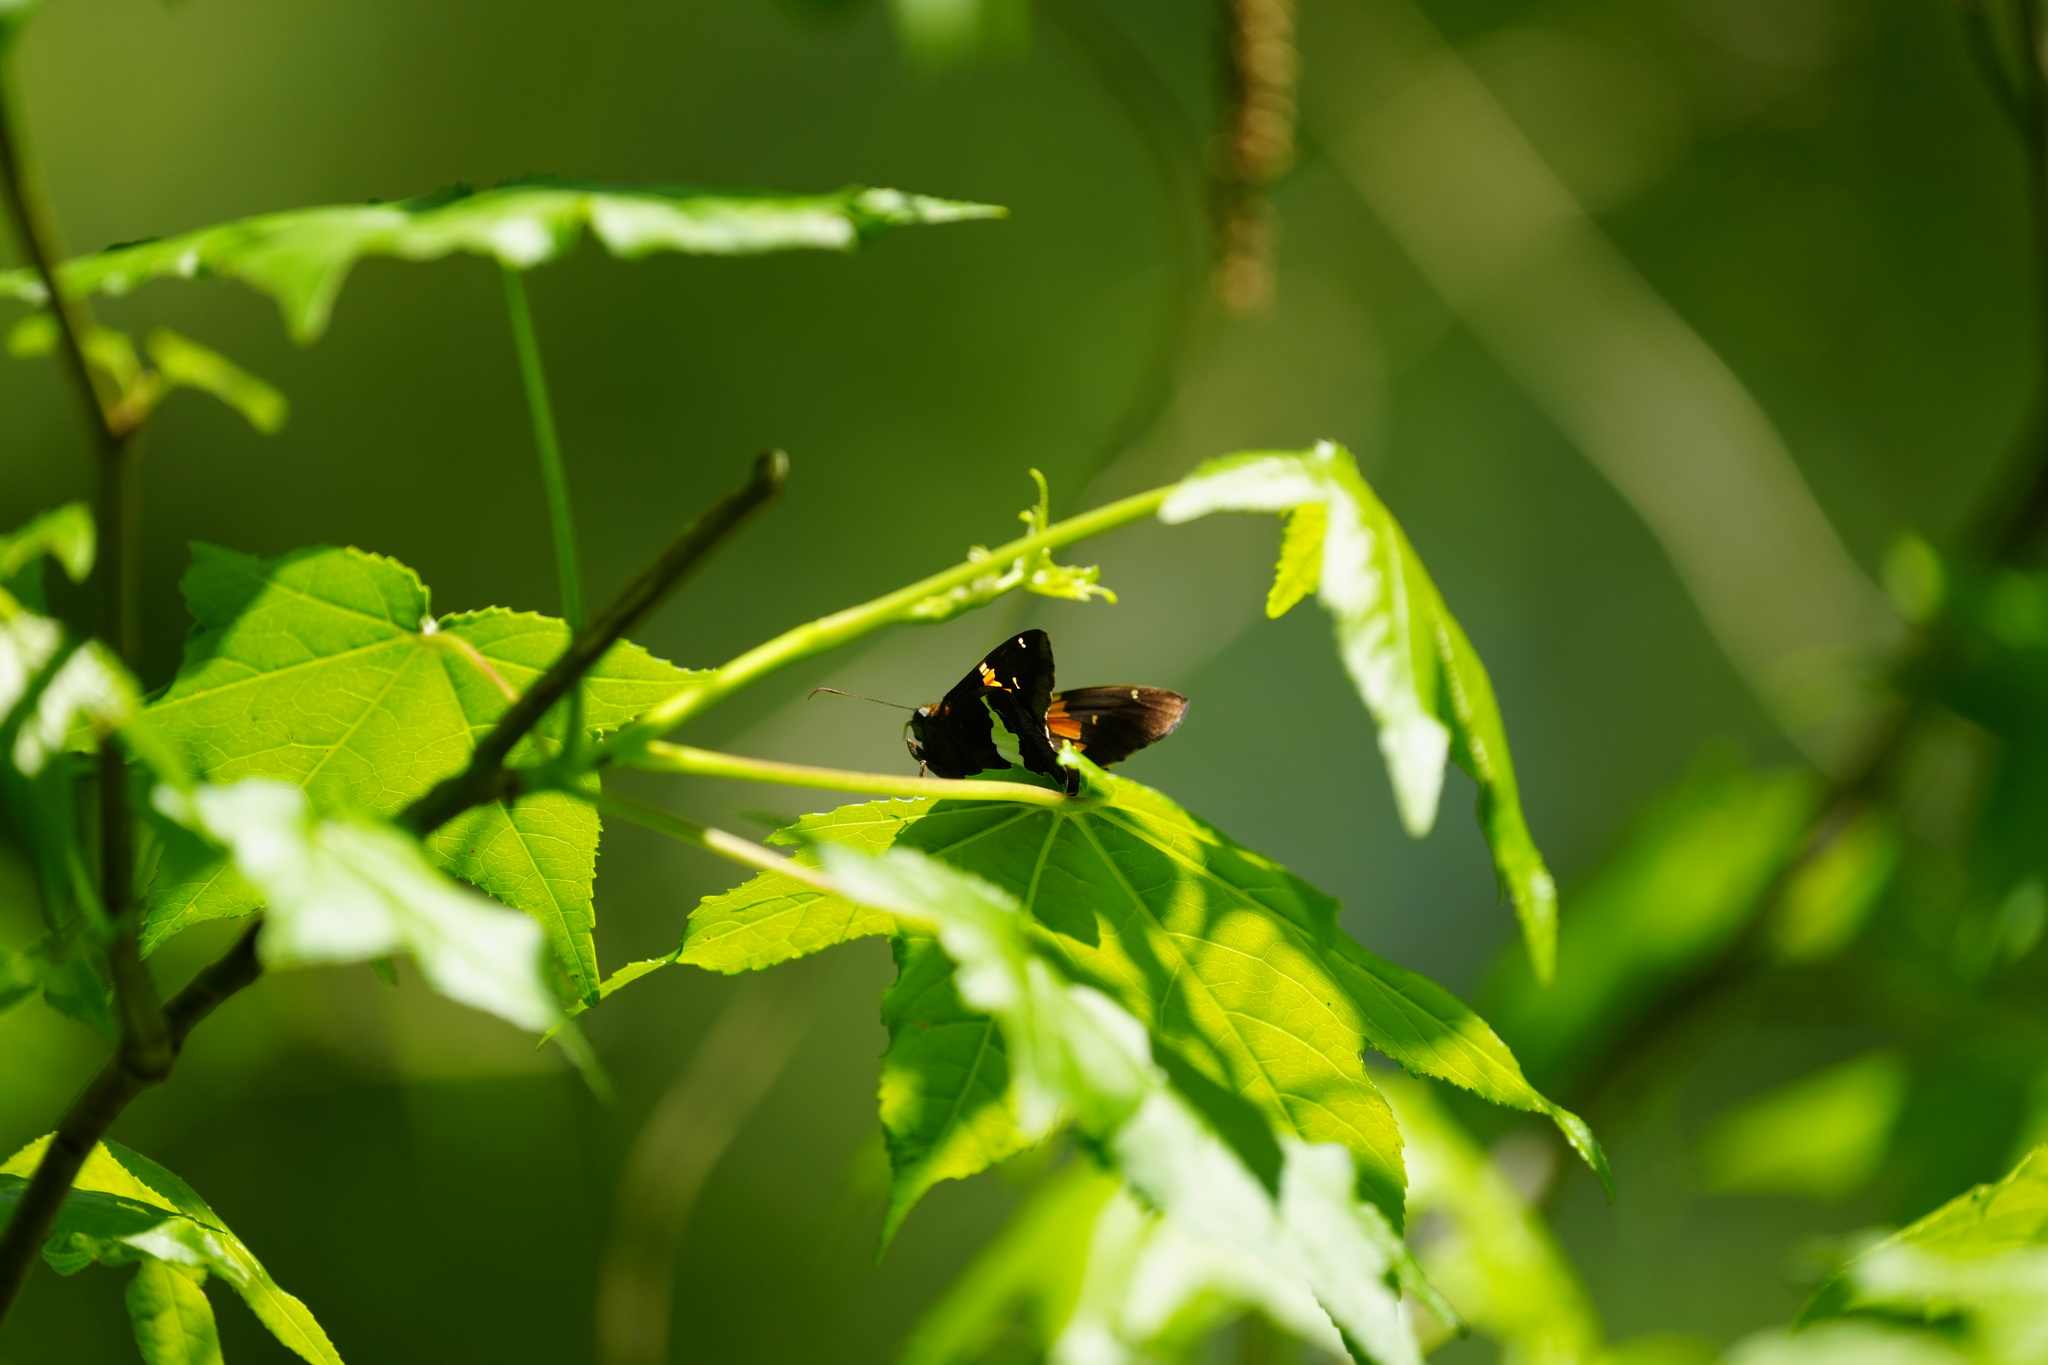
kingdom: Animalia
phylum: Arthropoda
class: Insecta
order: Lepidoptera
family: Hesperiidae
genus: Epargyreus
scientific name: Epargyreus clarus
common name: Silver-spotted skipper
